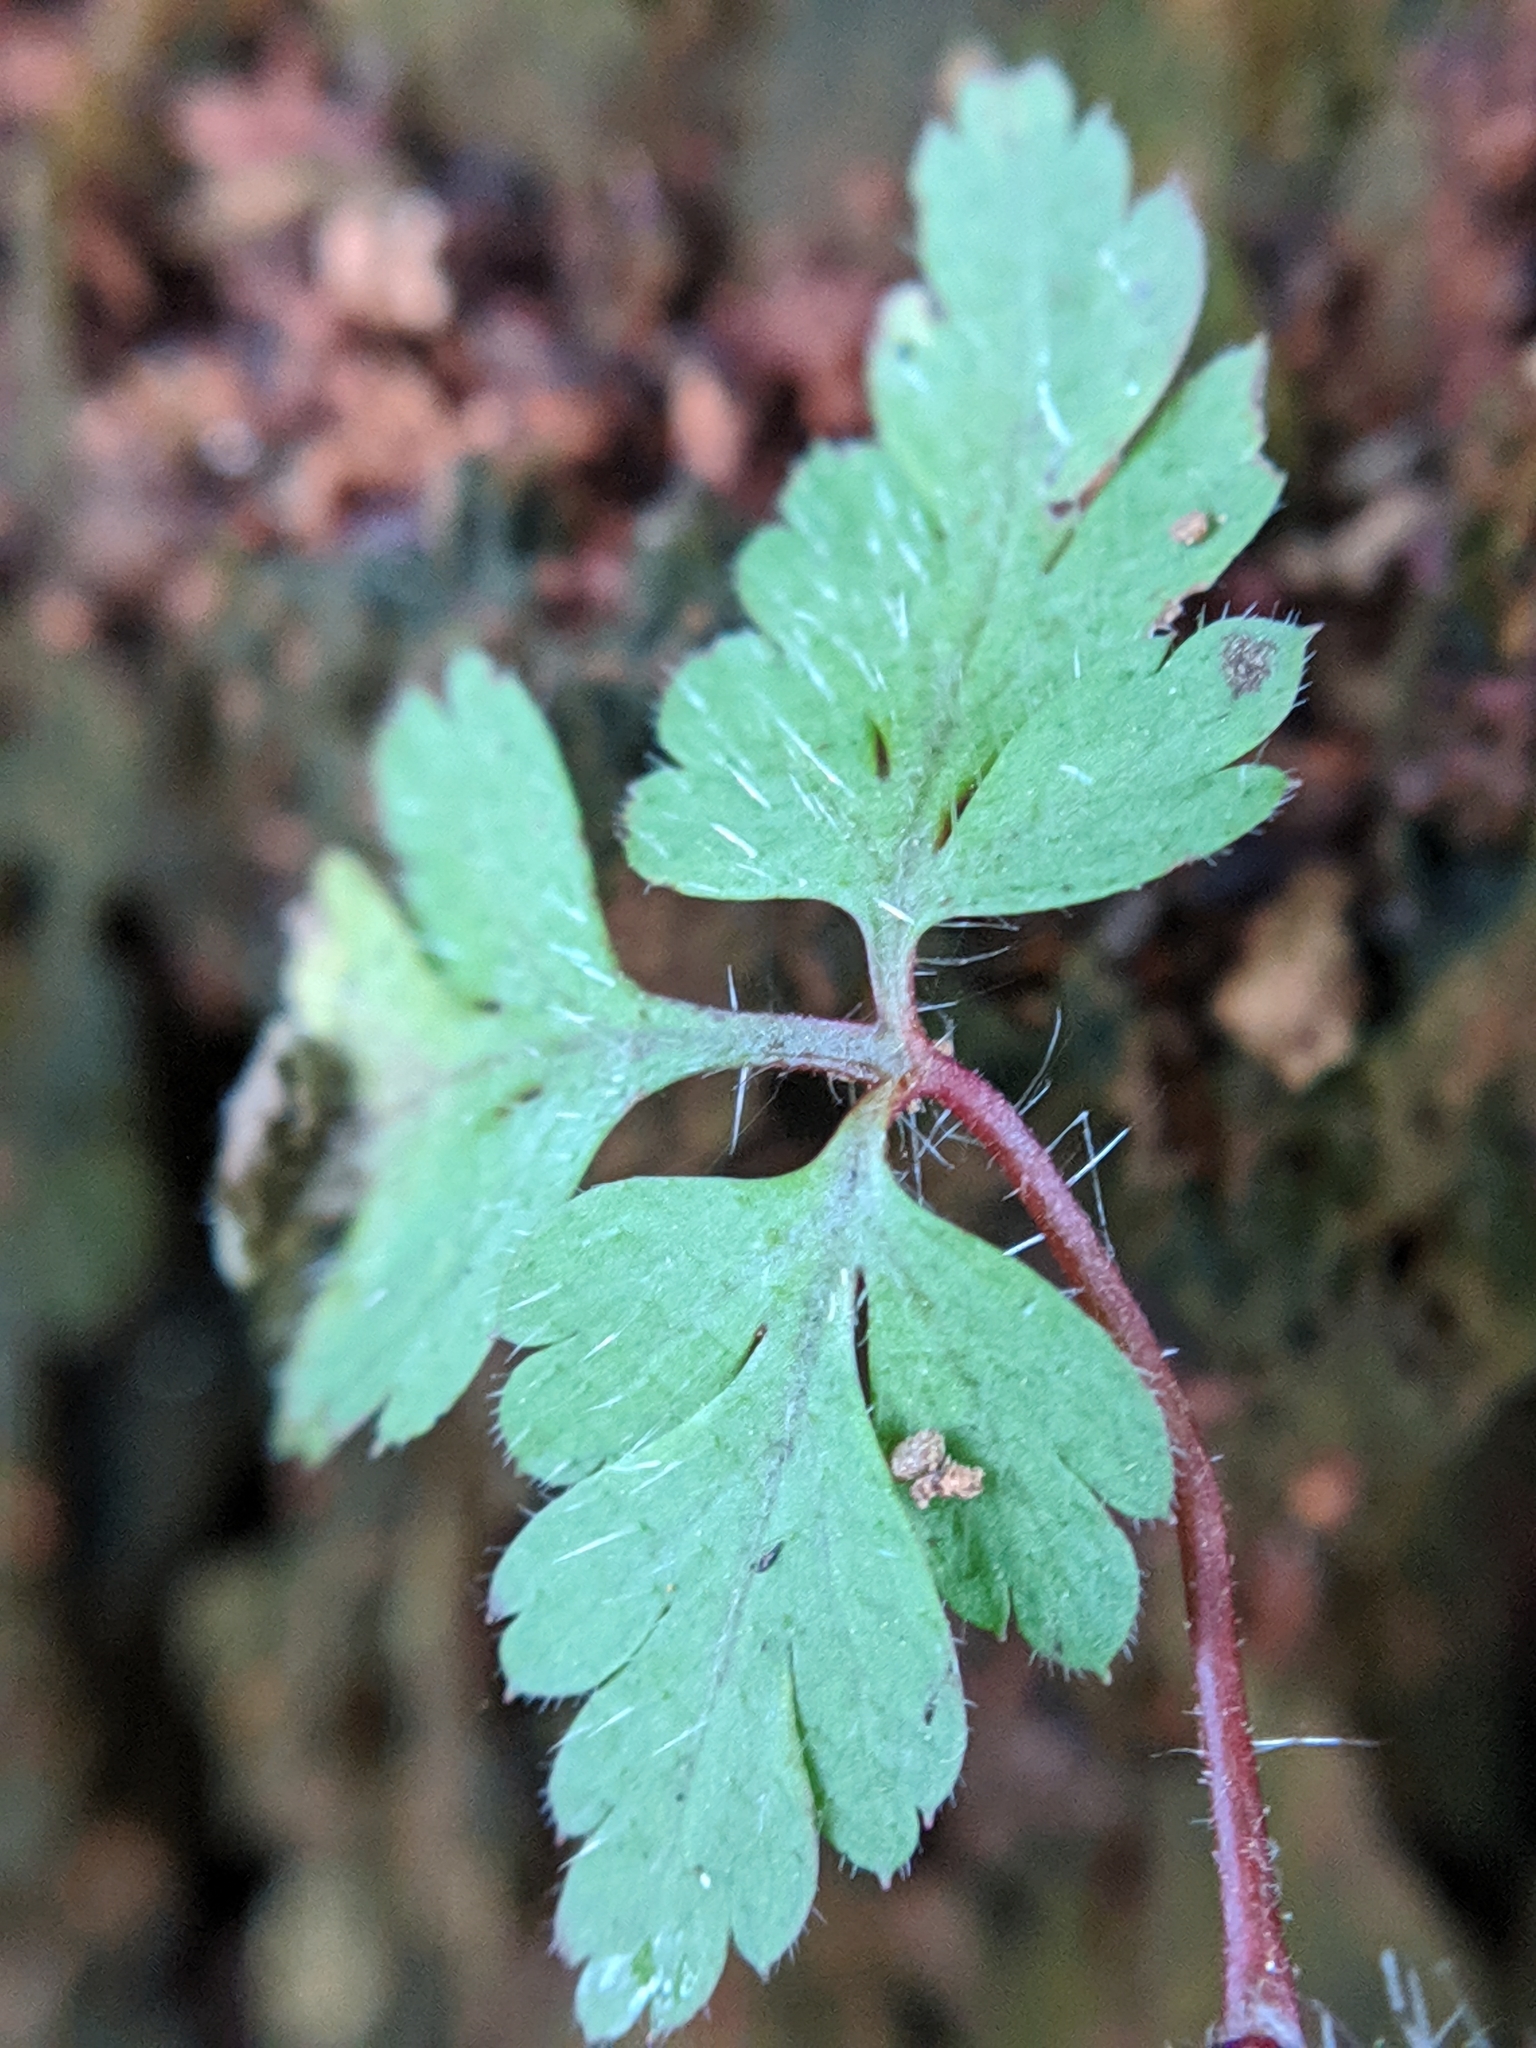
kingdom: Plantae
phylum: Tracheophyta
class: Magnoliopsida
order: Geraniales
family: Geraniaceae
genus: Geranium
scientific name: Geranium robertianum
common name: Herb-robert
